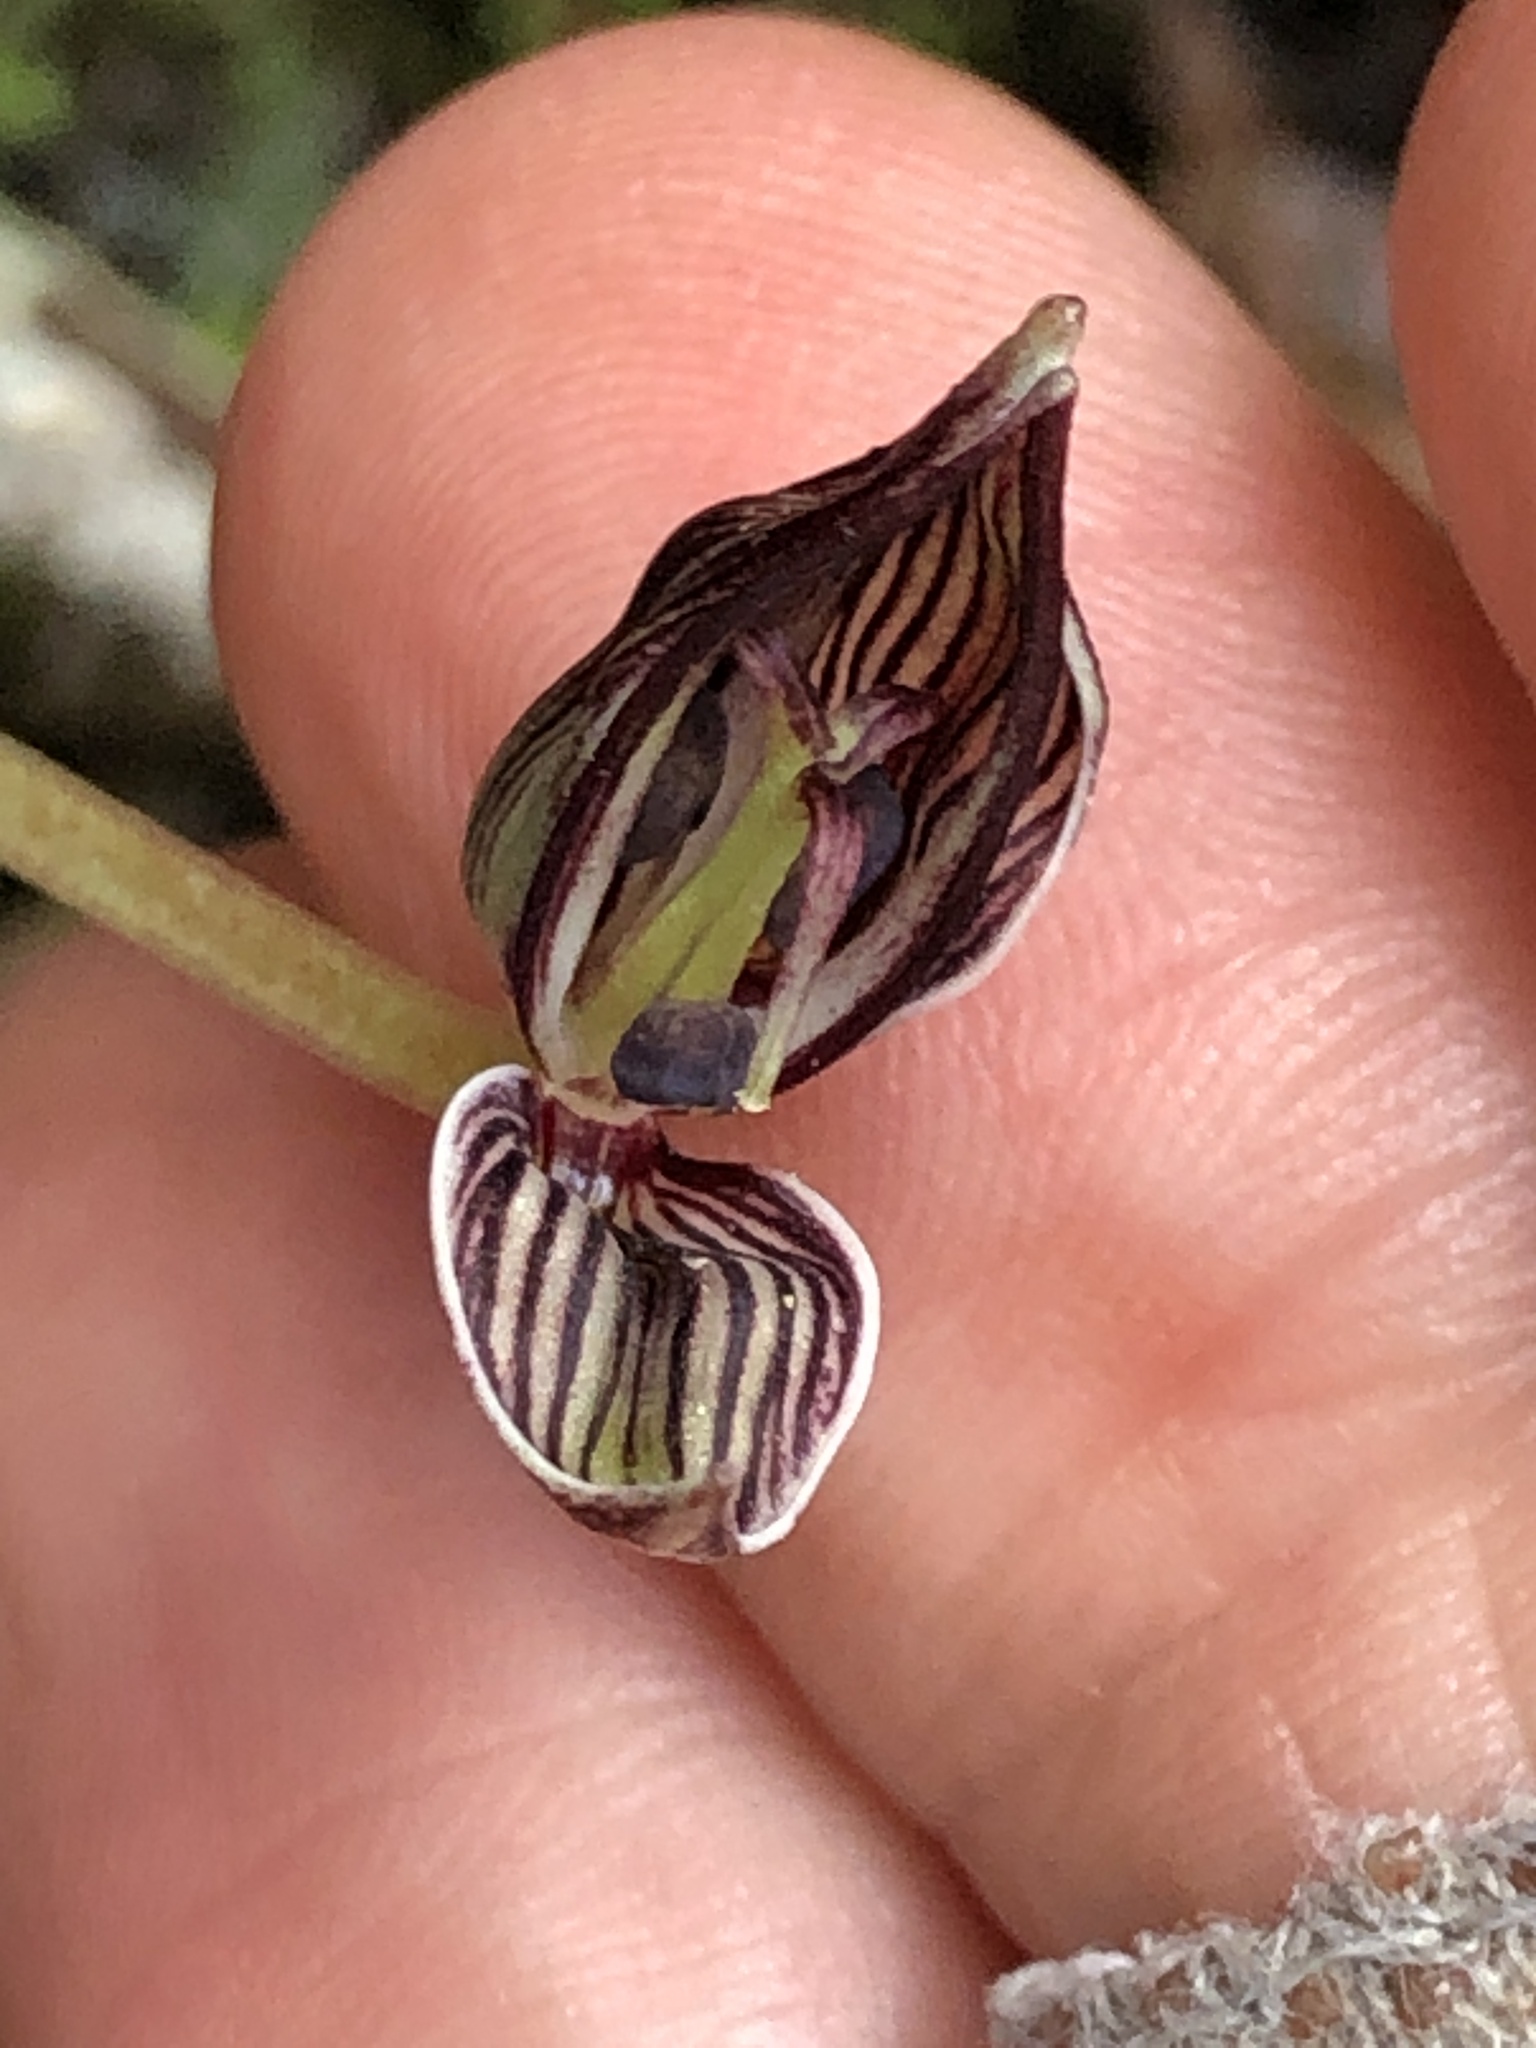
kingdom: Plantae
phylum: Tracheophyta
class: Liliopsida
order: Liliales
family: Liliaceae
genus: Scoliopus
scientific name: Scoliopus bigelovii
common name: Foetid adder's-tongue
